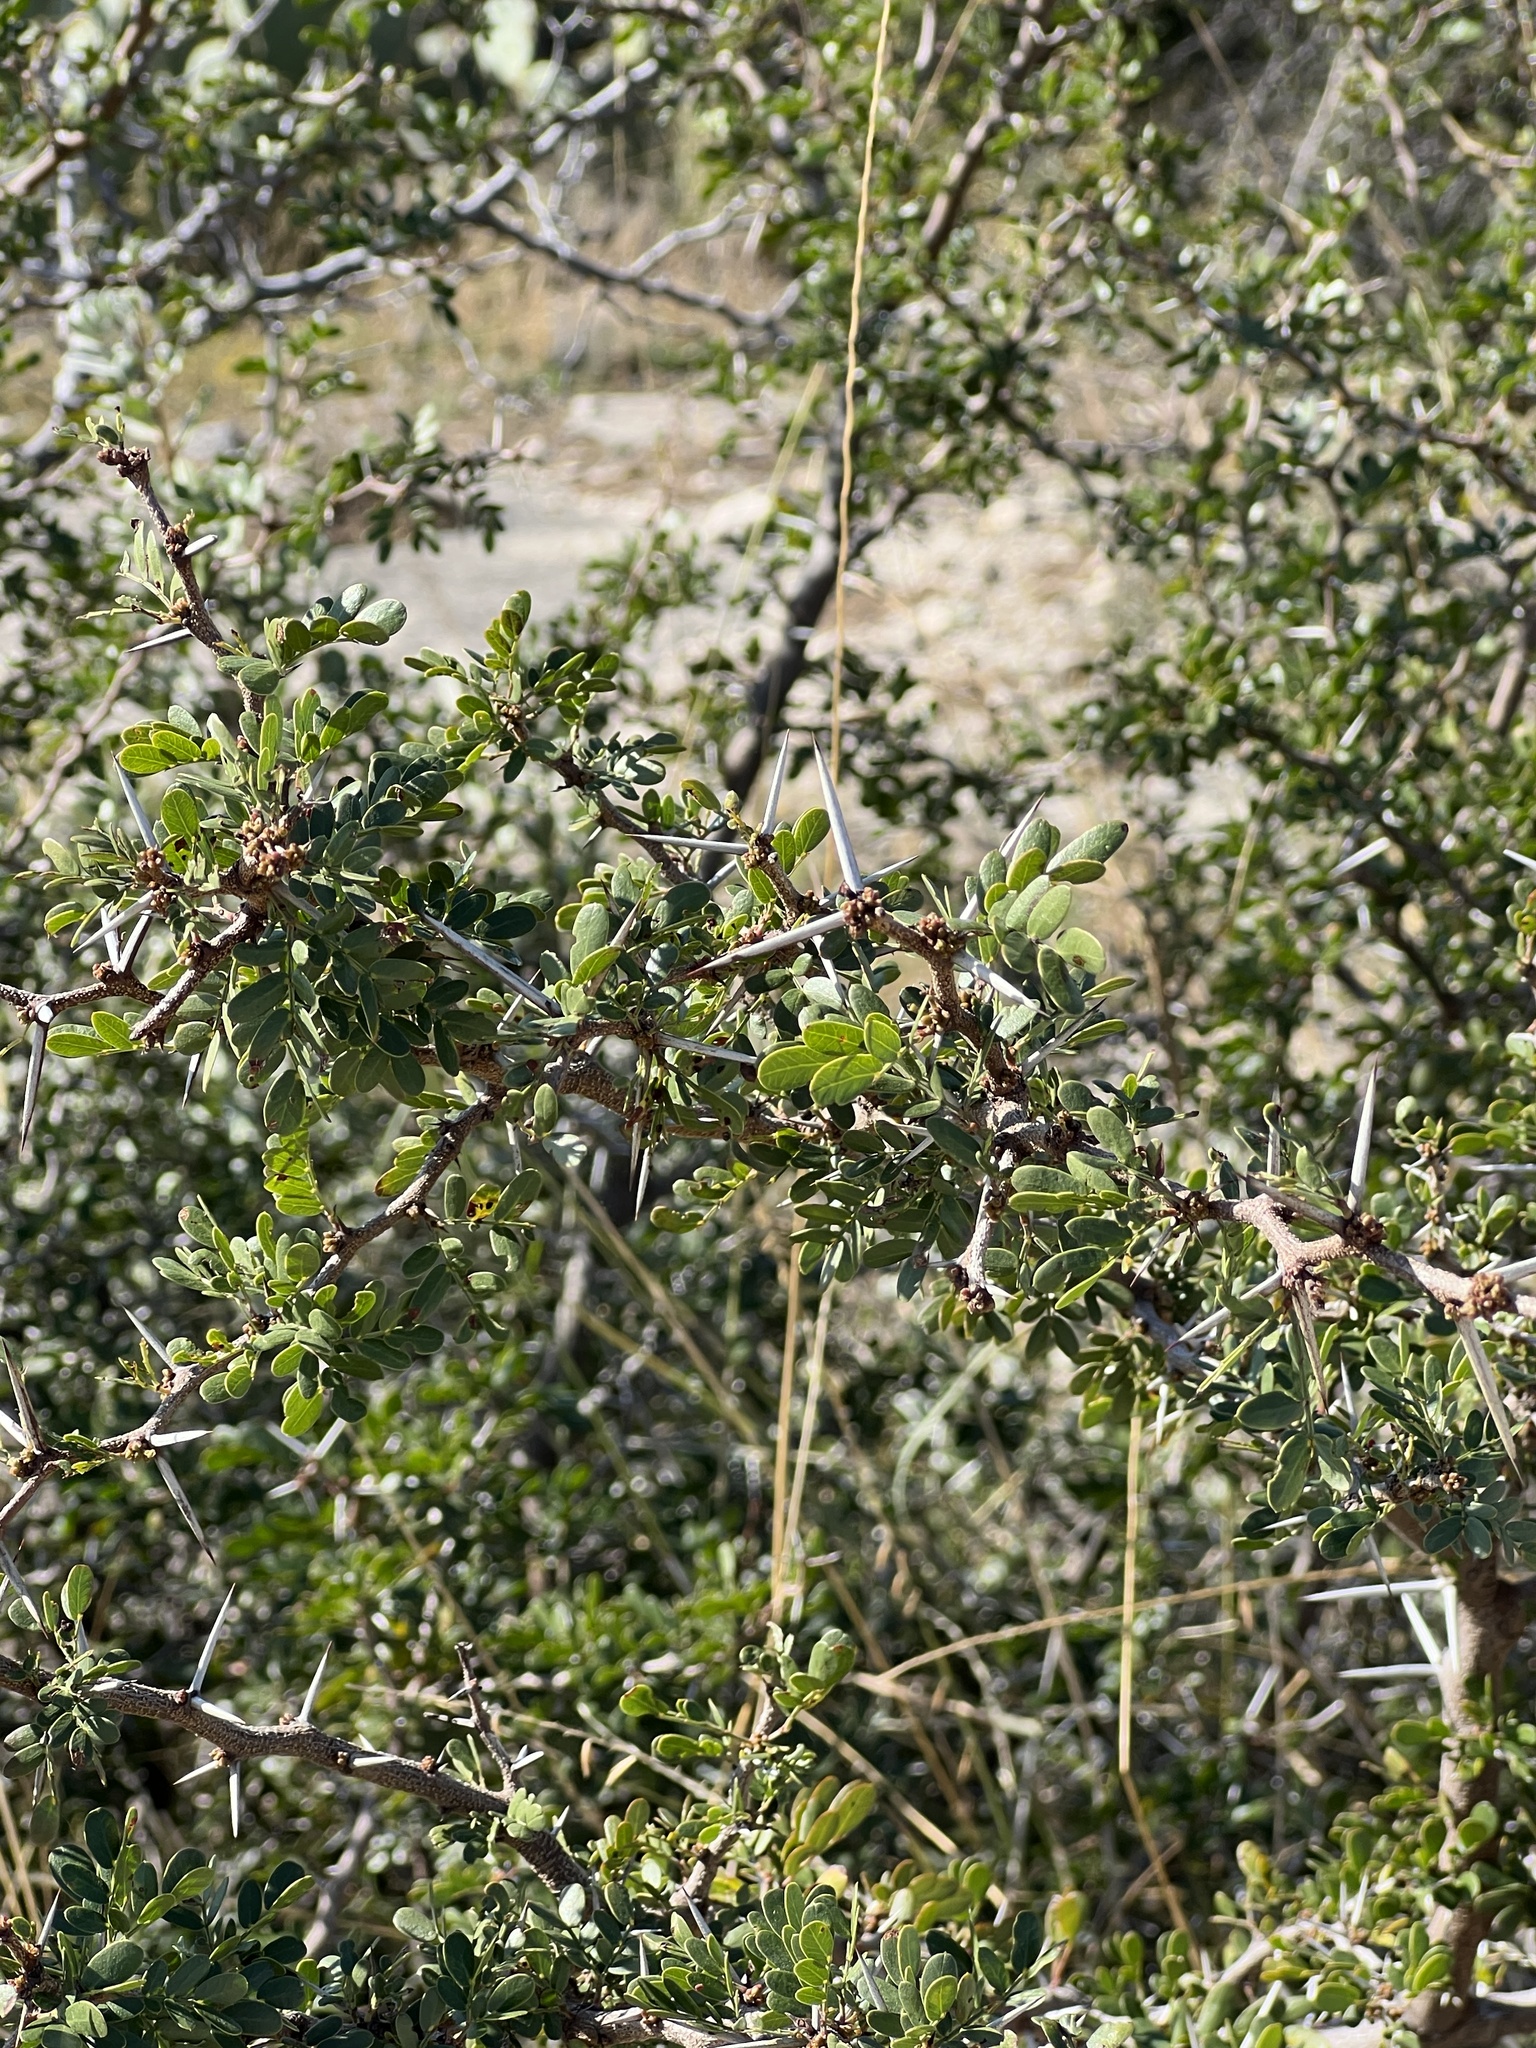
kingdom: Plantae
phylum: Tracheophyta
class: Magnoliopsida
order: Fabales
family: Fabaceae
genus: Vachellia
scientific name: Vachellia rigidula
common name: Blackbrush
